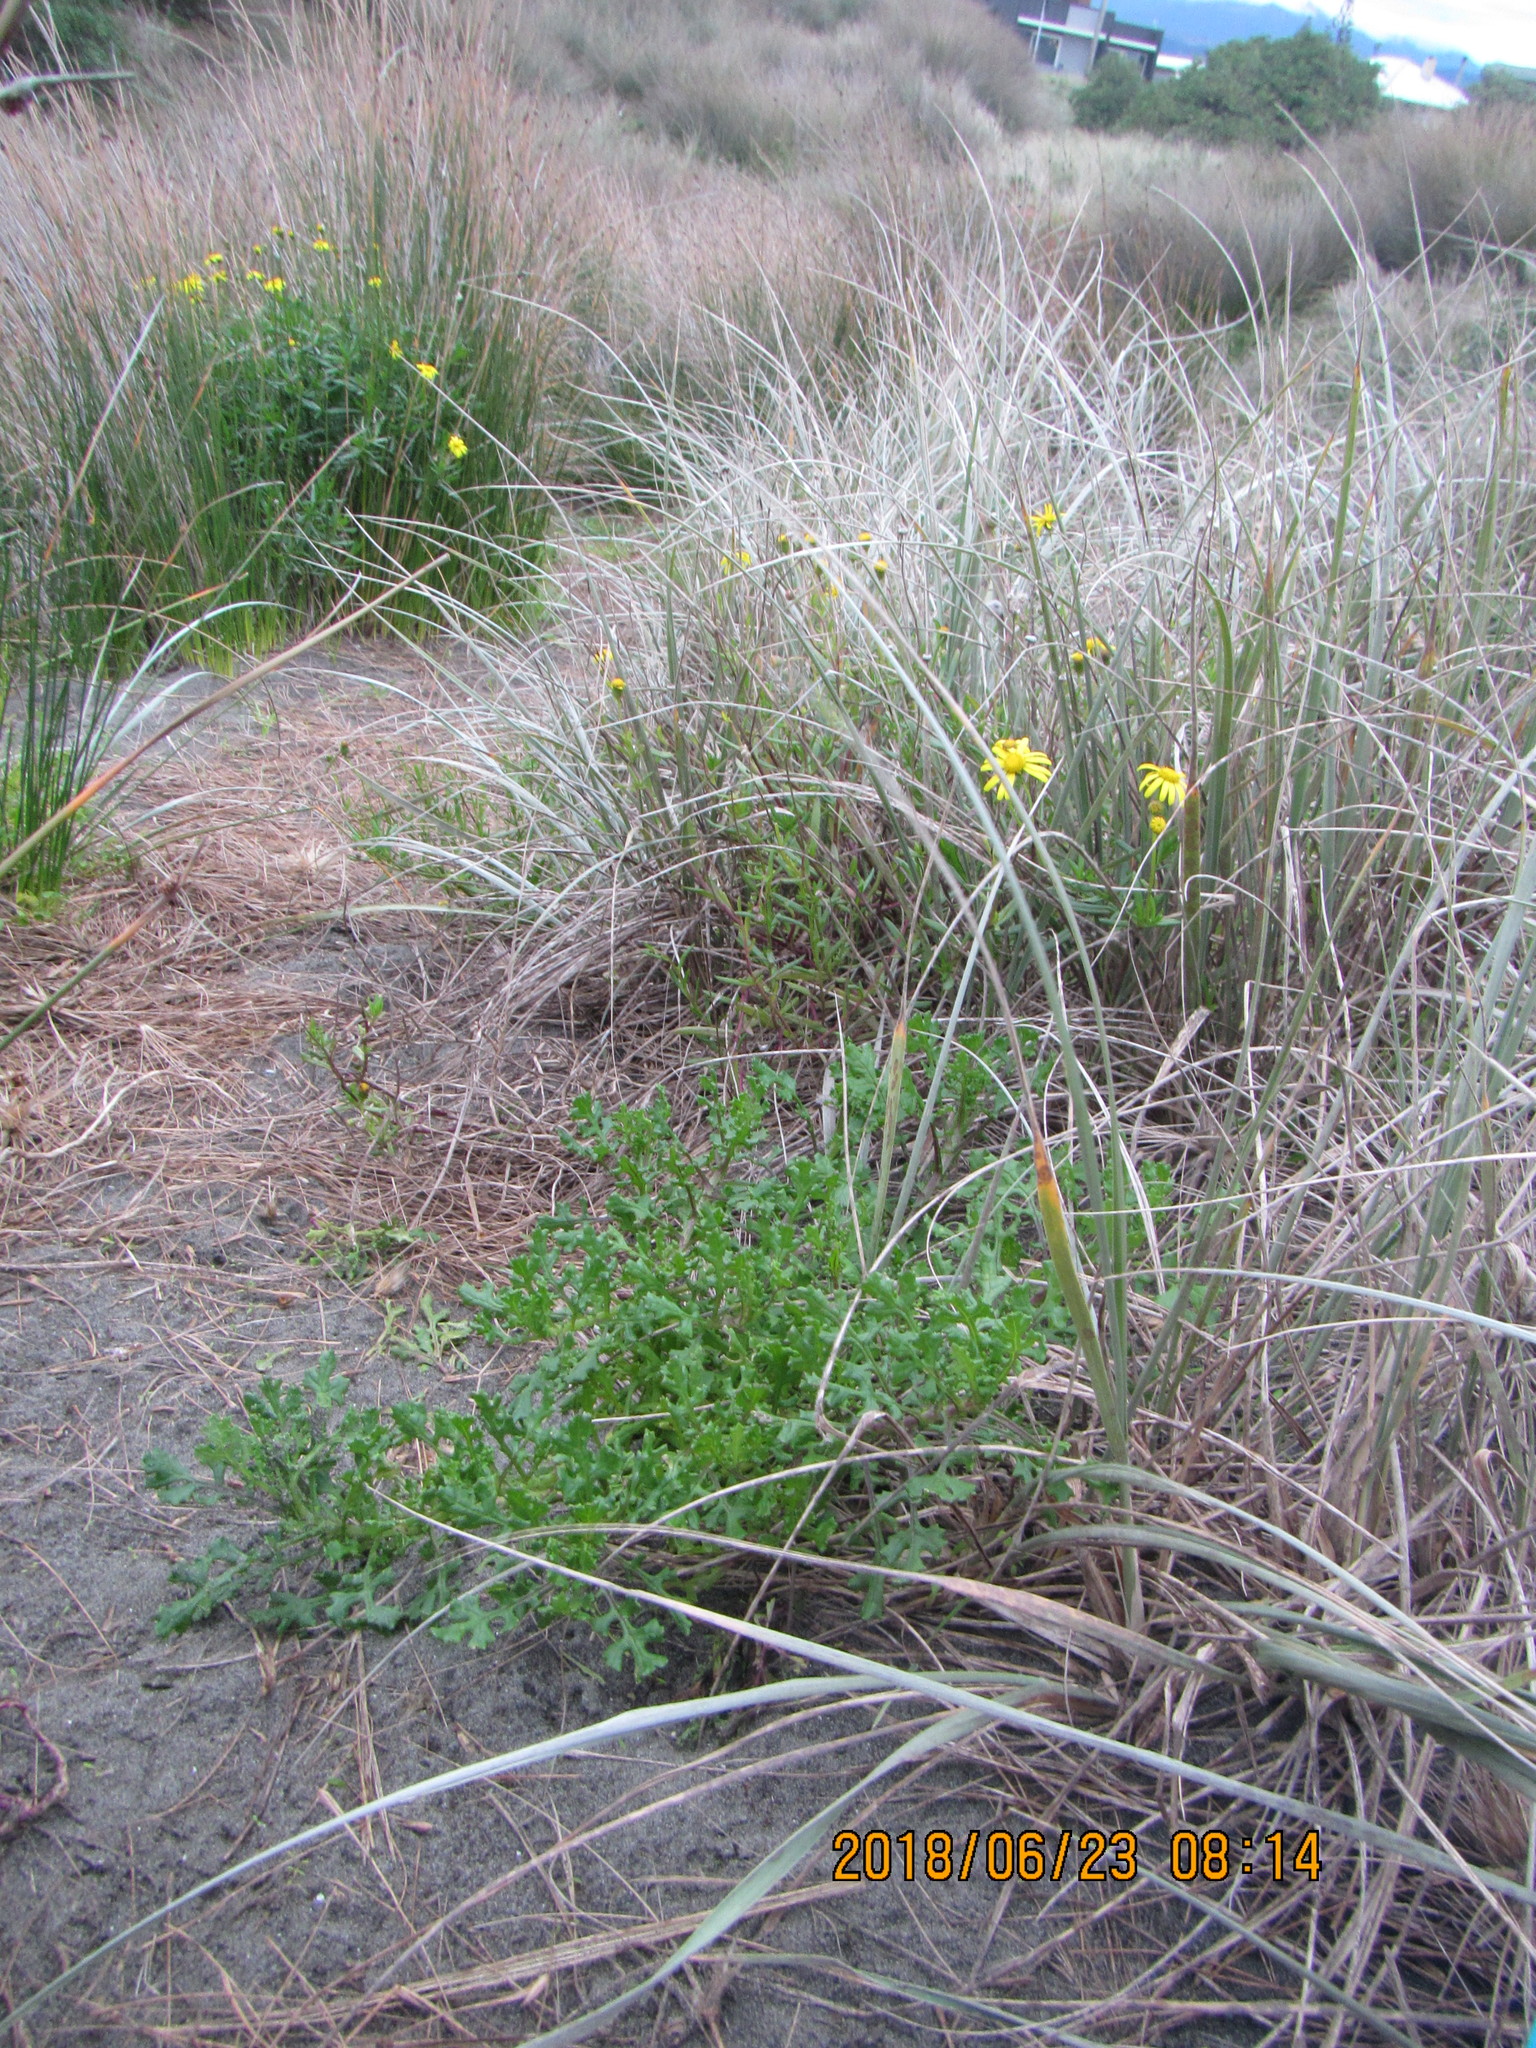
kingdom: Plantae
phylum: Tracheophyta
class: Magnoliopsida
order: Asterales
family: Asteraceae
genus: Senecio
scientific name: Senecio elegans
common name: Purple groundsel
